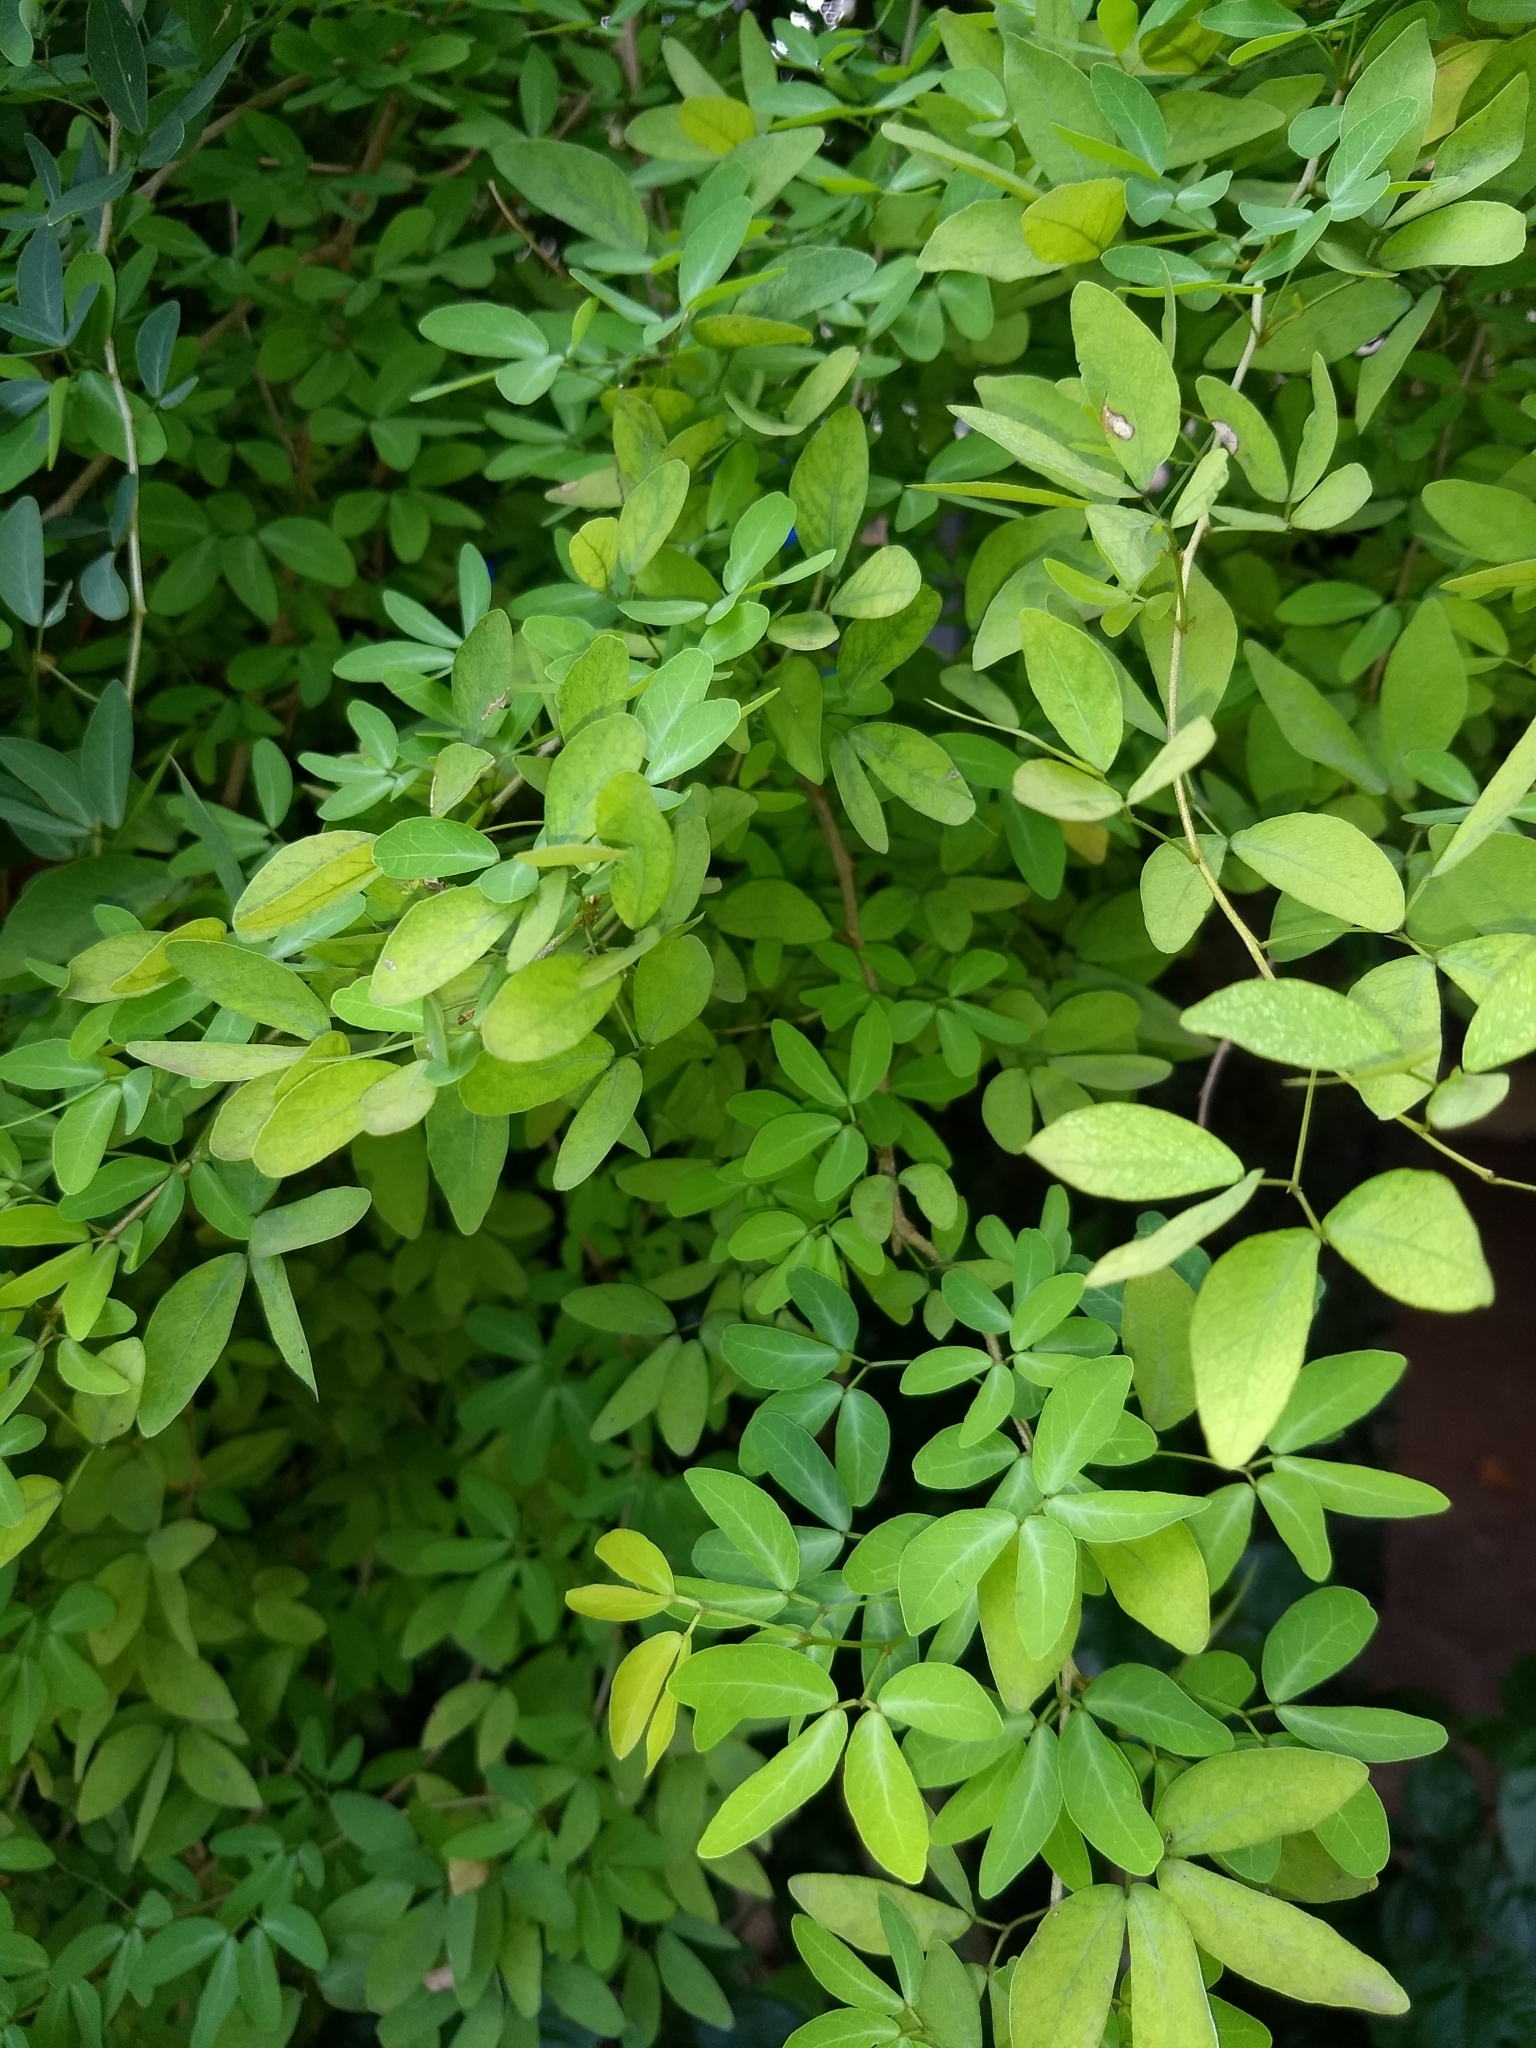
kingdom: Plantae
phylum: Tracheophyta
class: Magnoliopsida
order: Fabales
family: Fabaceae
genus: Pithecellobium
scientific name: Pithecellobium dulce
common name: Monkeypod
